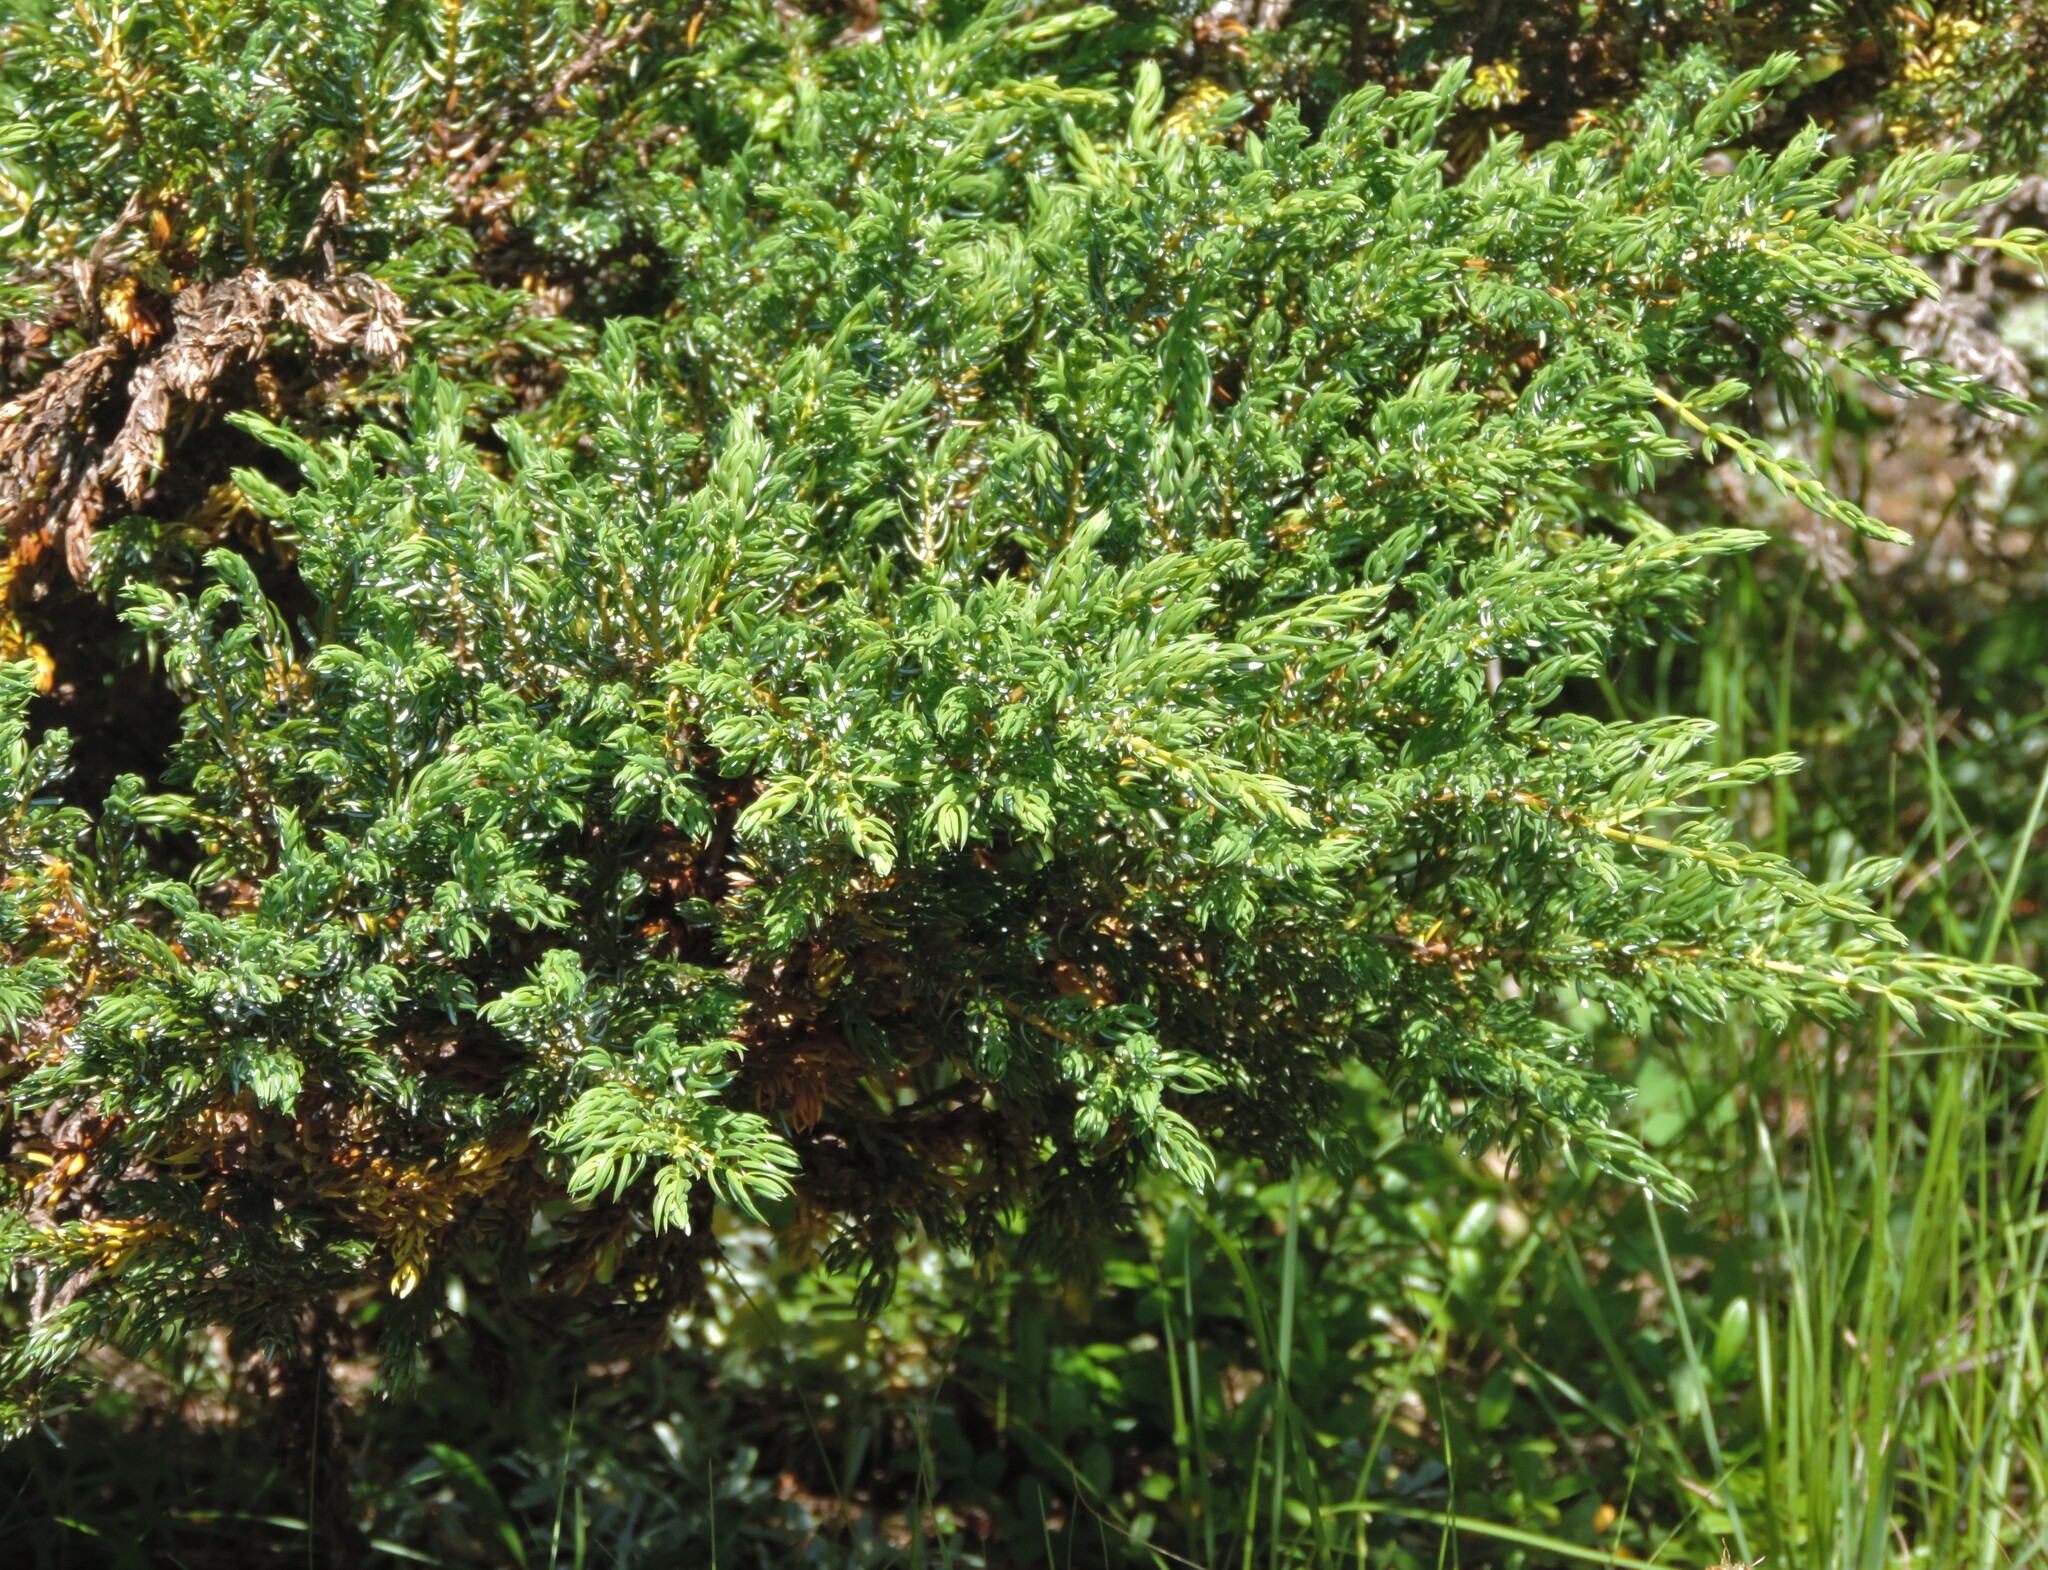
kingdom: Plantae
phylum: Tracheophyta
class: Pinopsida
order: Pinales
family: Cupressaceae
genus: Juniperus
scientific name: Juniperus communis
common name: Common juniper
